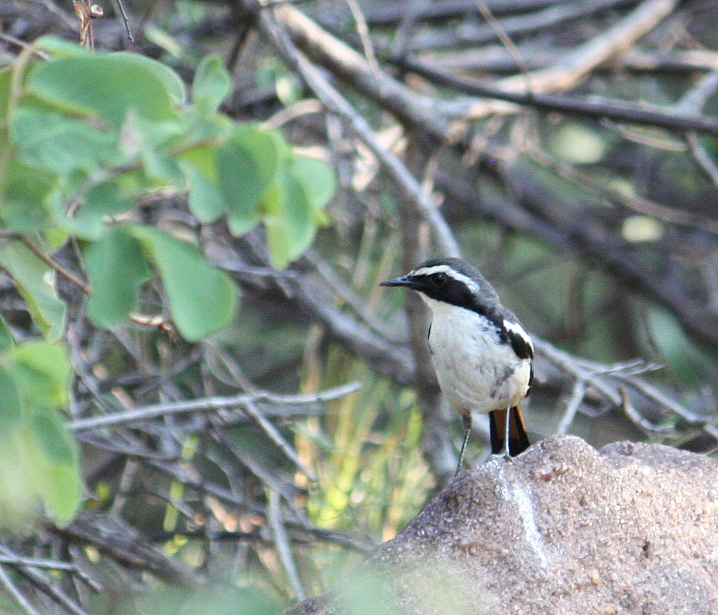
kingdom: Animalia
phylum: Chordata
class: Aves
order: Passeriformes
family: Muscicapidae
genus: Cossypha
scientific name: Cossypha humeralis
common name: White-throated robin-chat
